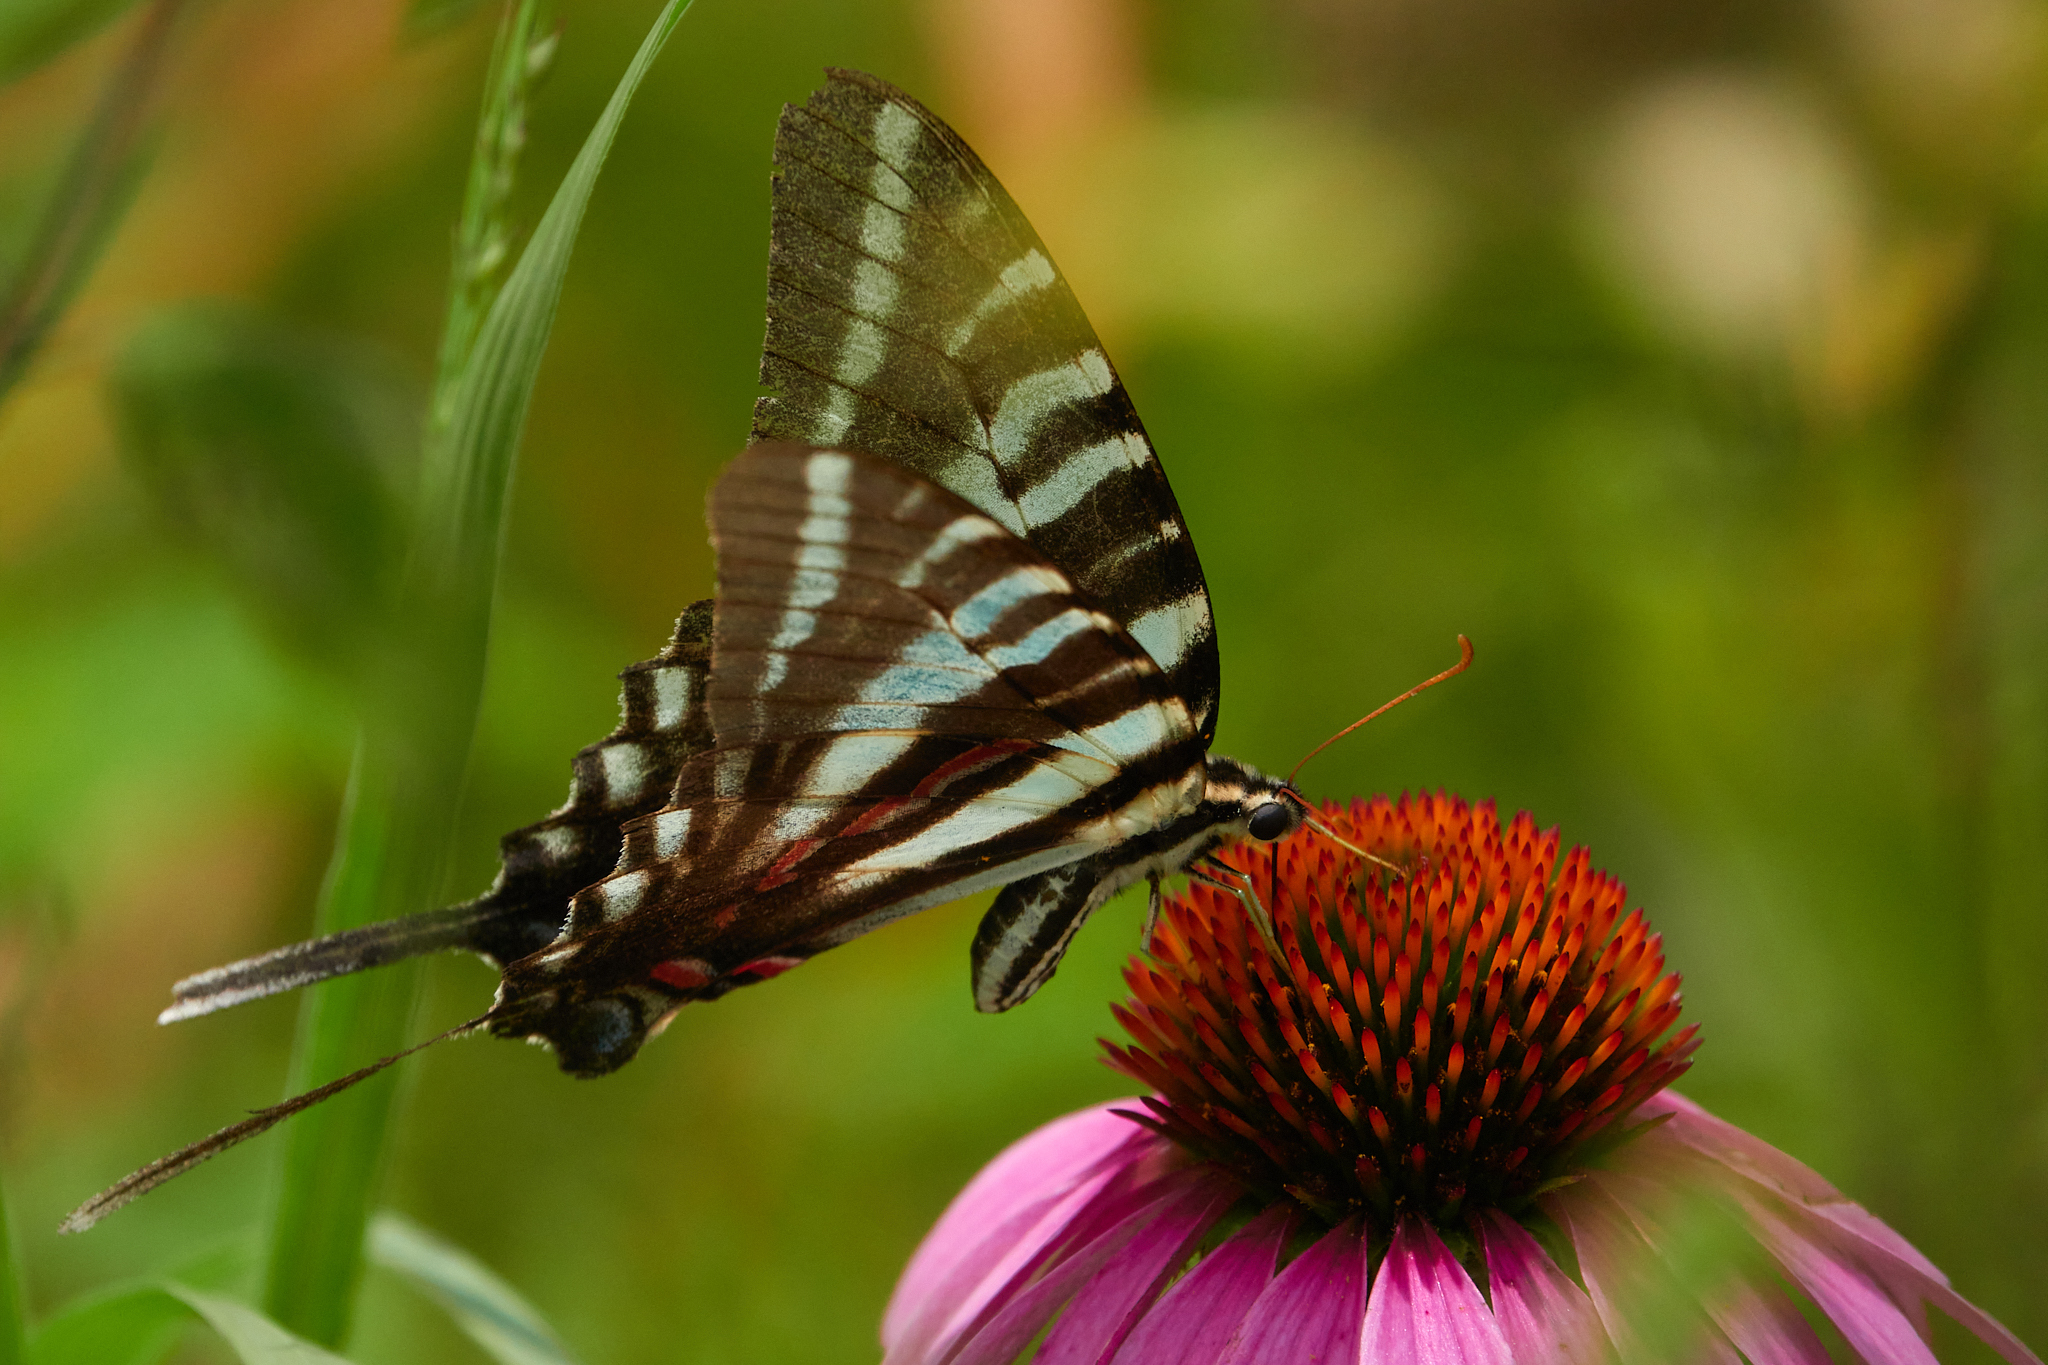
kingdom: Animalia
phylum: Arthropoda
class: Insecta
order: Lepidoptera
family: Papilionidae
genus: Protographium
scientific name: Protographium marcellus
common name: Zebra swallowtail
